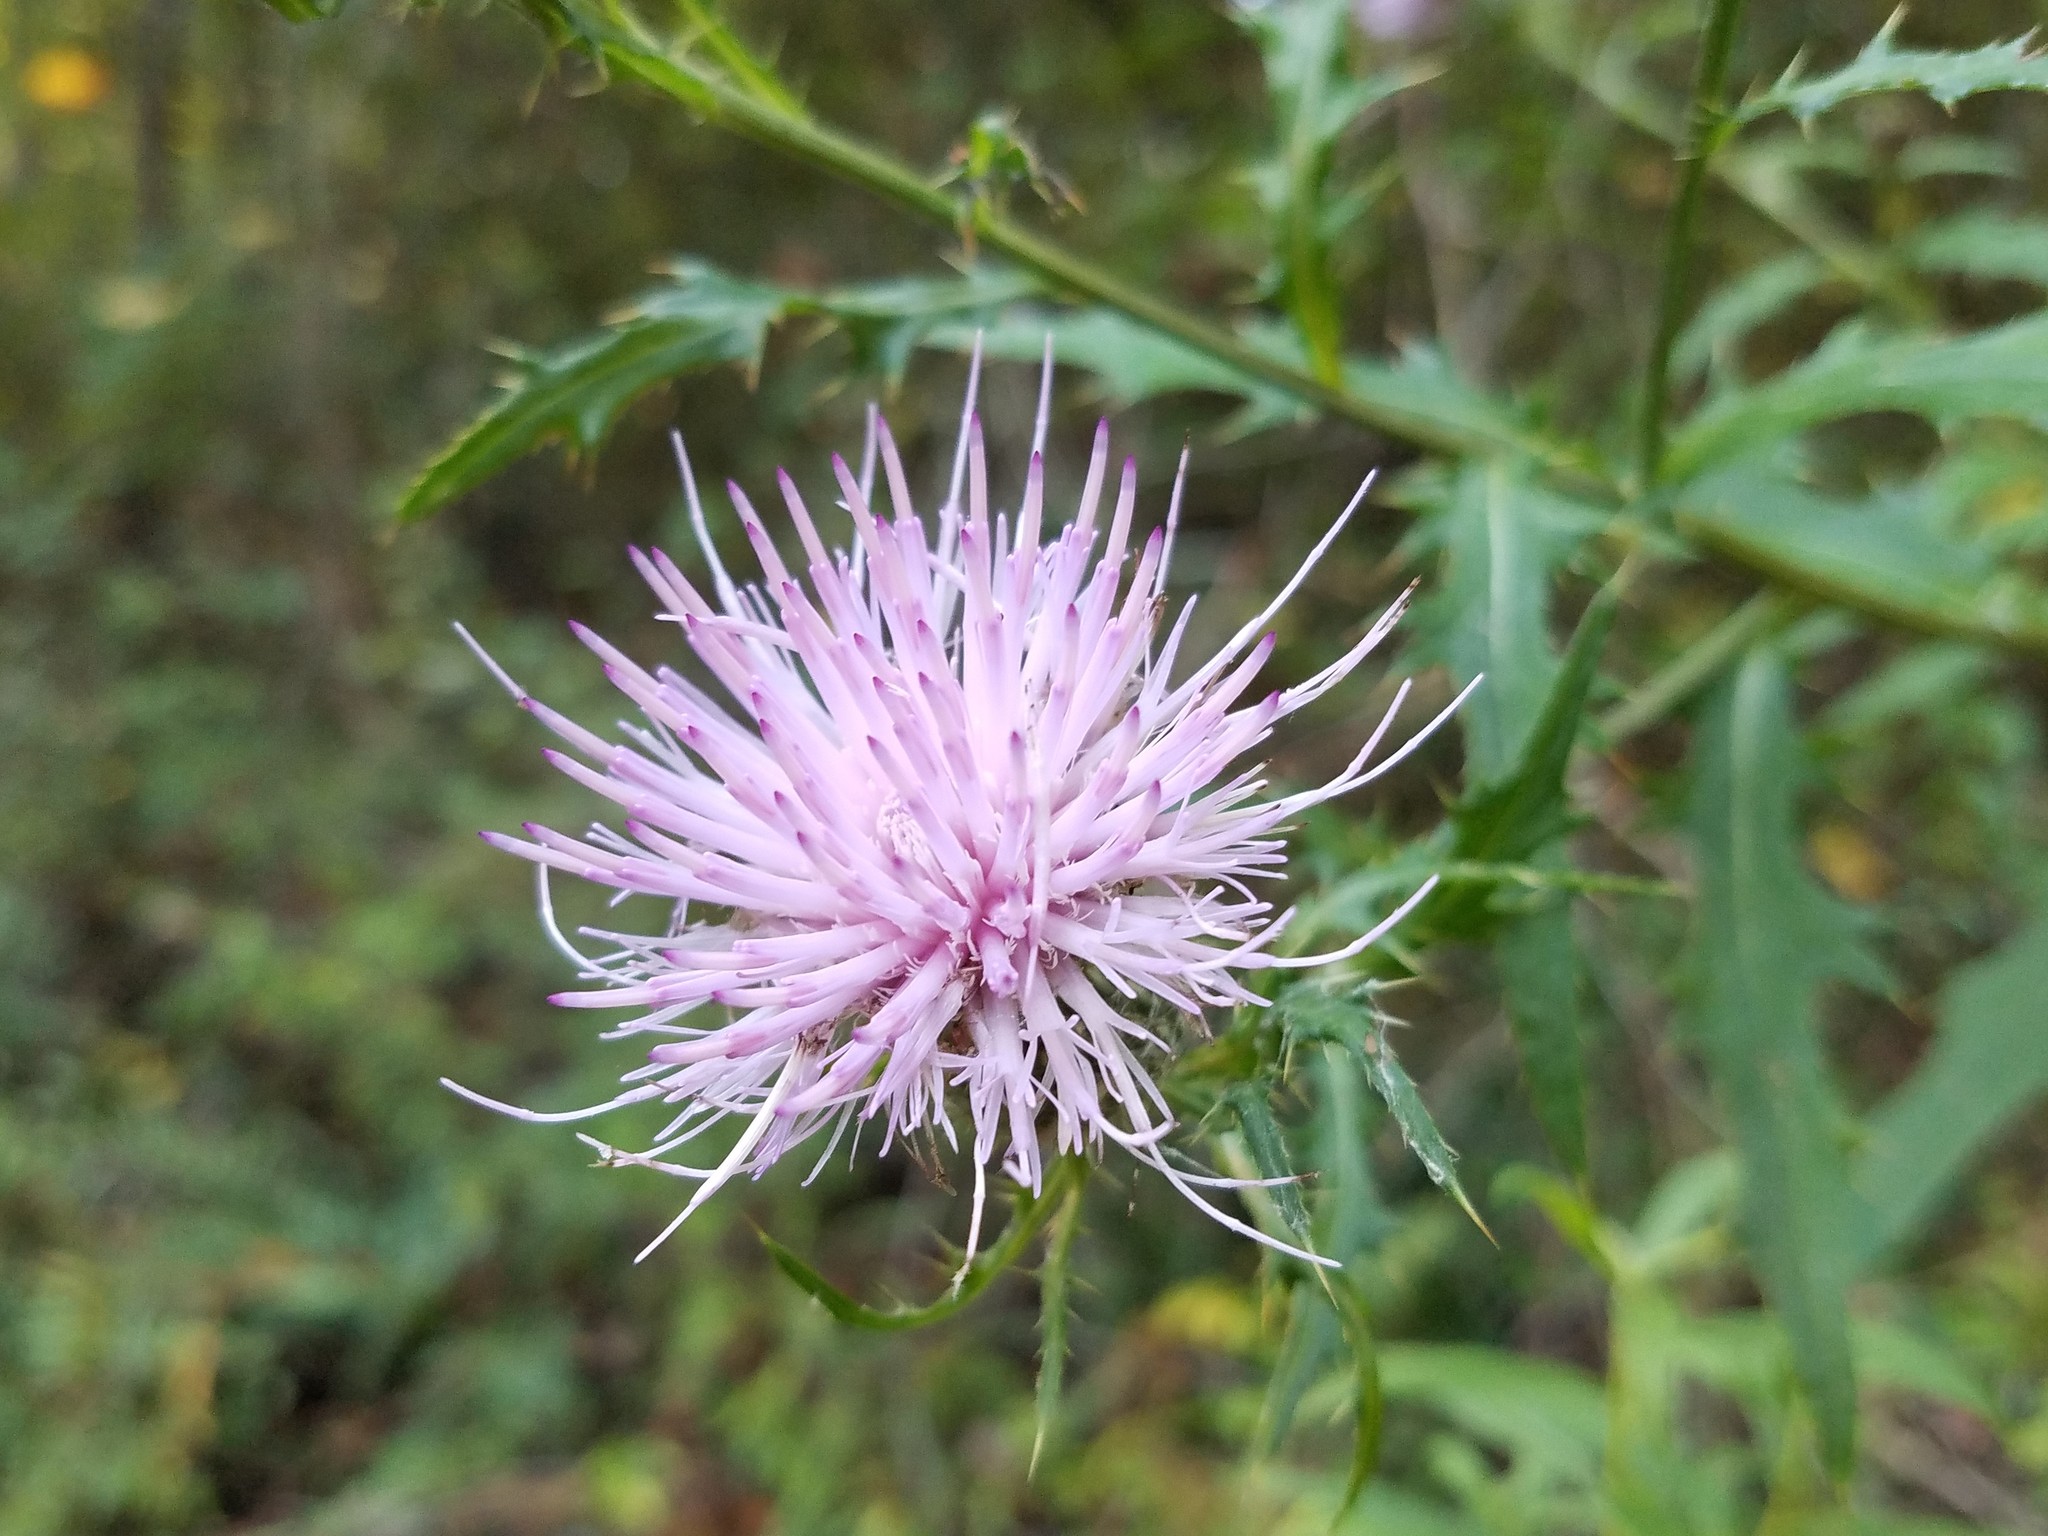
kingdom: Plantae
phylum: Tracheophyta
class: Magnoliopsida
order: Asterales
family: Asteraceae
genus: Cirsium
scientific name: Cirsium altissimum
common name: Roadside thistle
